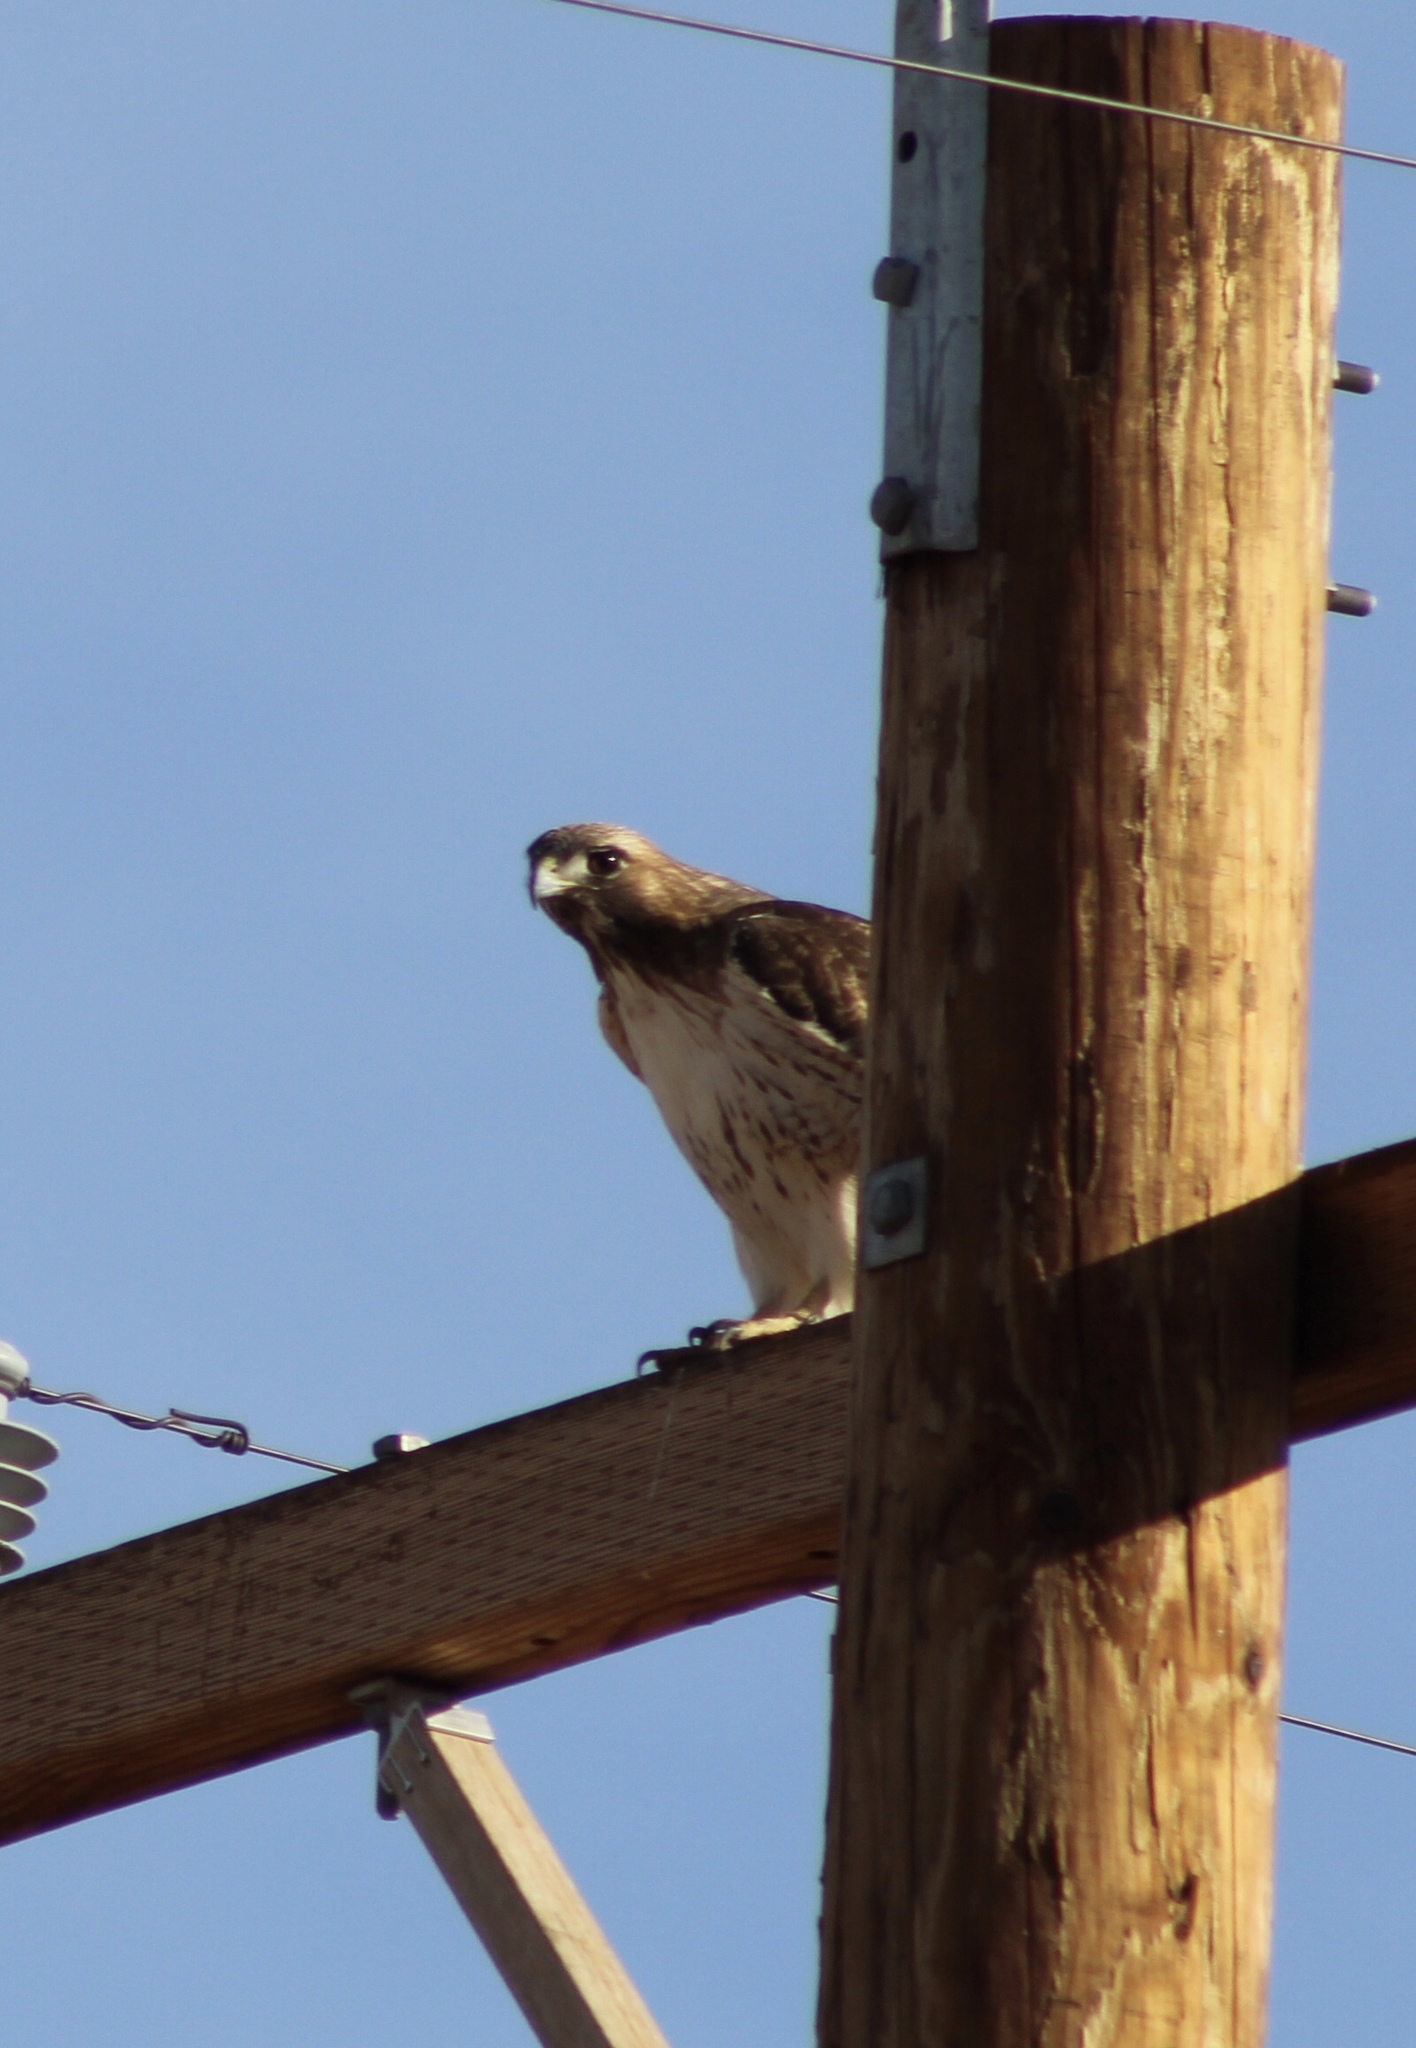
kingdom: Animalia
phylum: Chordata
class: Aves
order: Accipitriformes
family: Accipitridae
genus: Buteo
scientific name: Buteo jamaicensis
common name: Red-tailed hawk
